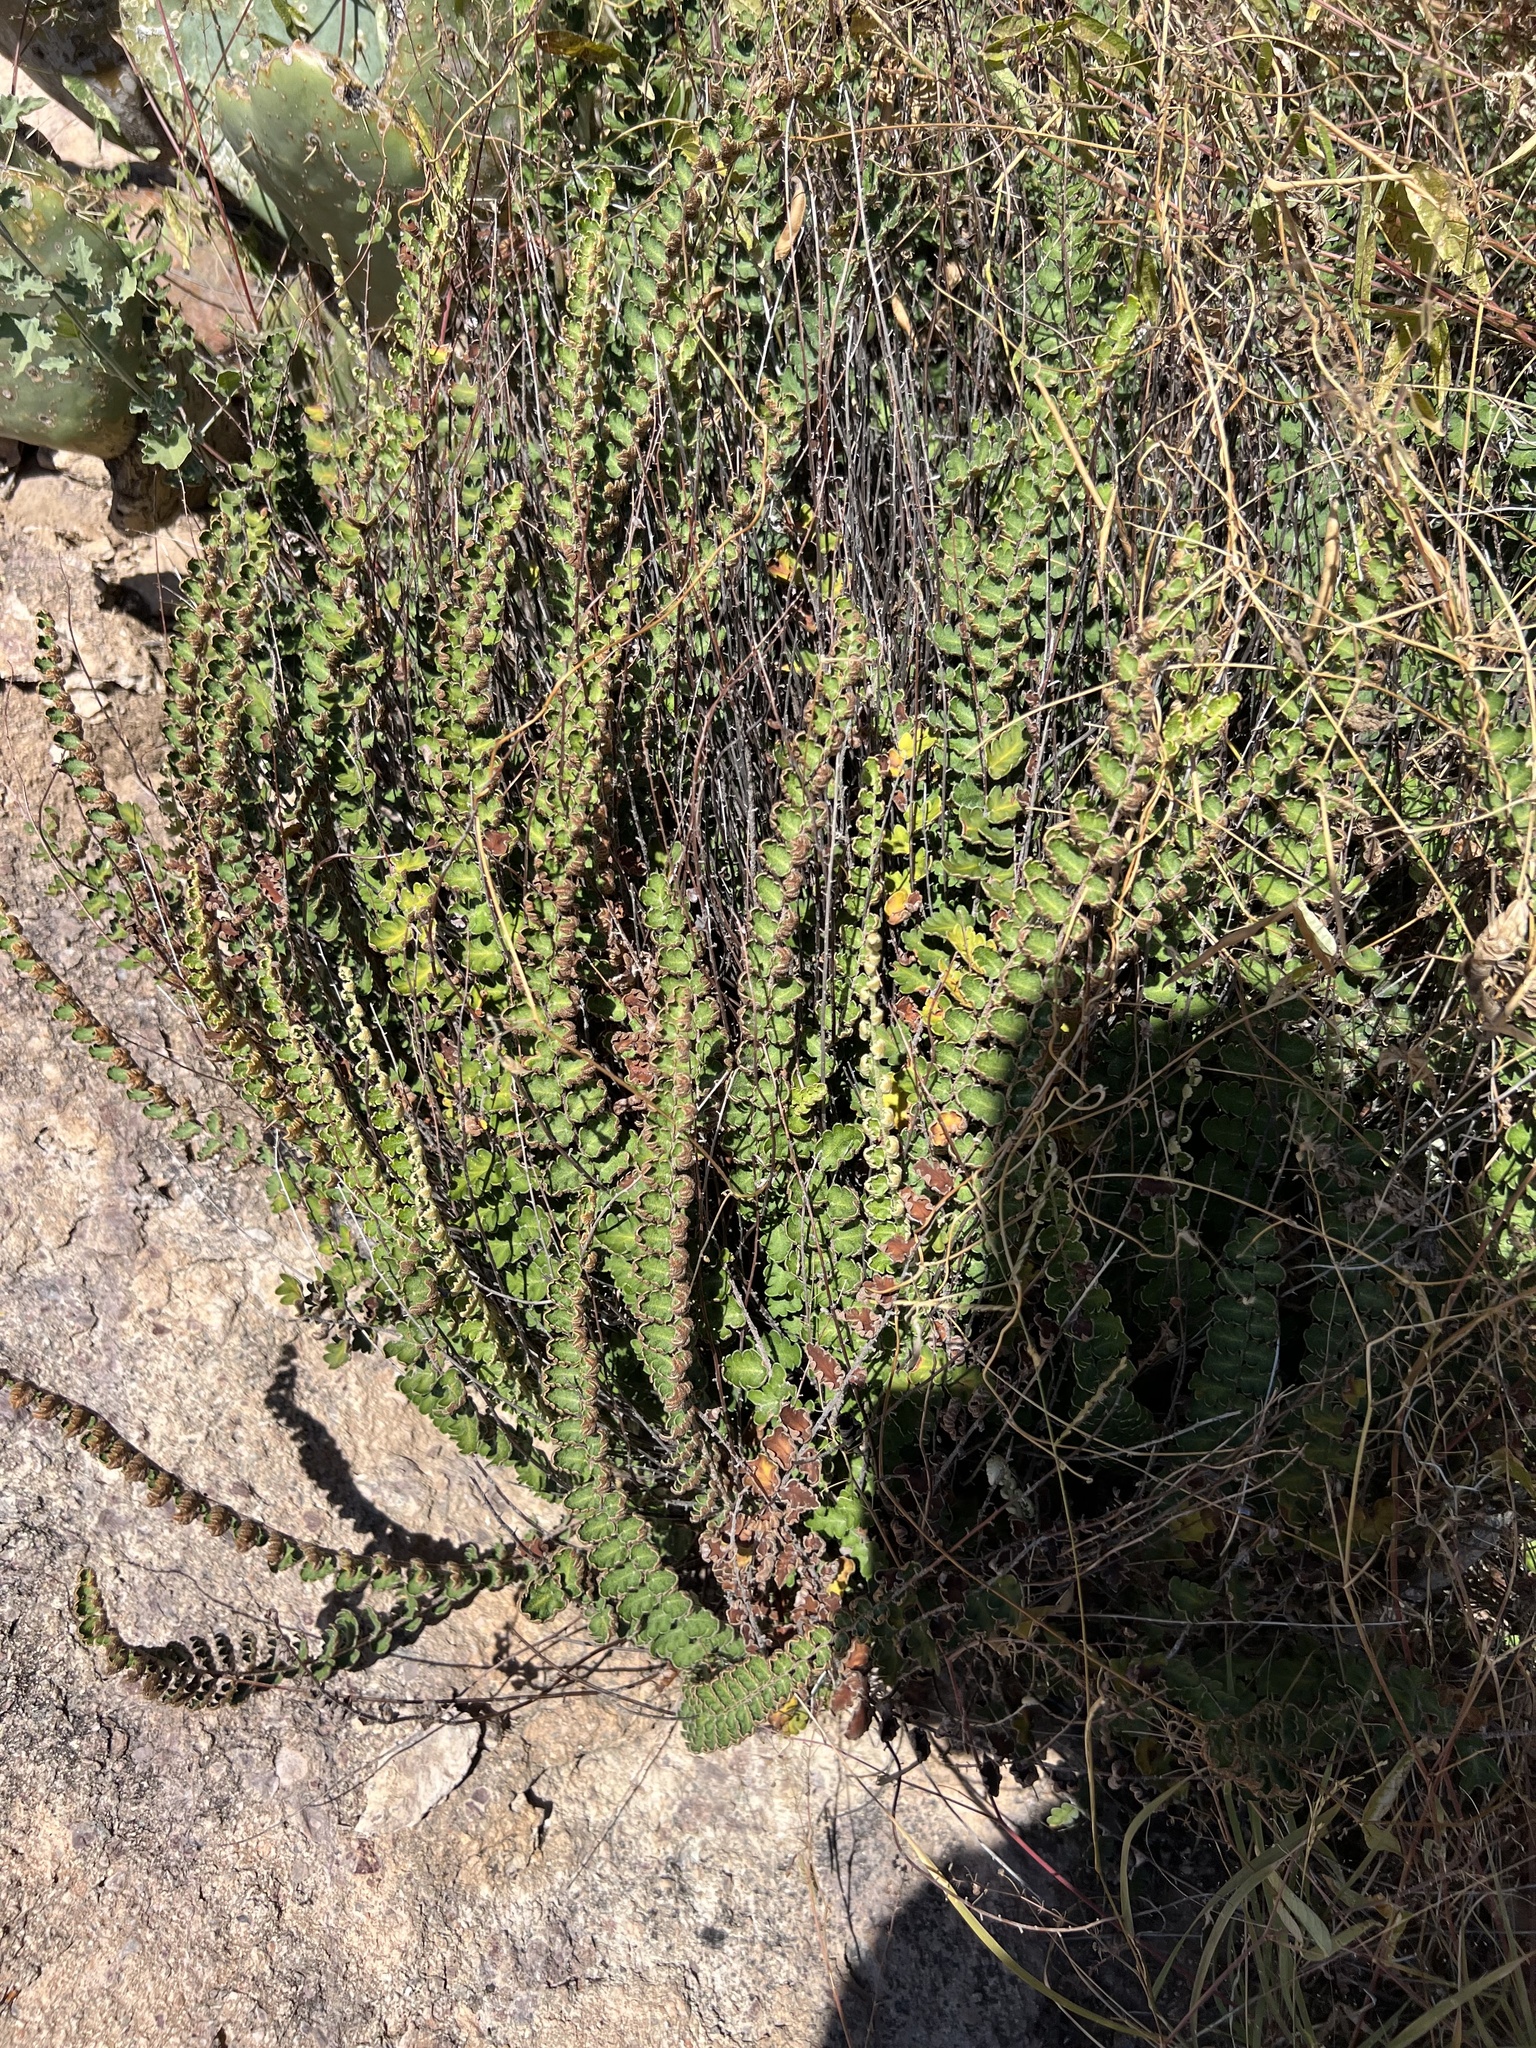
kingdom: Plantae
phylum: Tracheophyta
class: Polypodiopsida
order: Polypodiales
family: Pteridaceae
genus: Astrolepis
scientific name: Astrolepis sinuata
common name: Wavy scaly cloakfern
